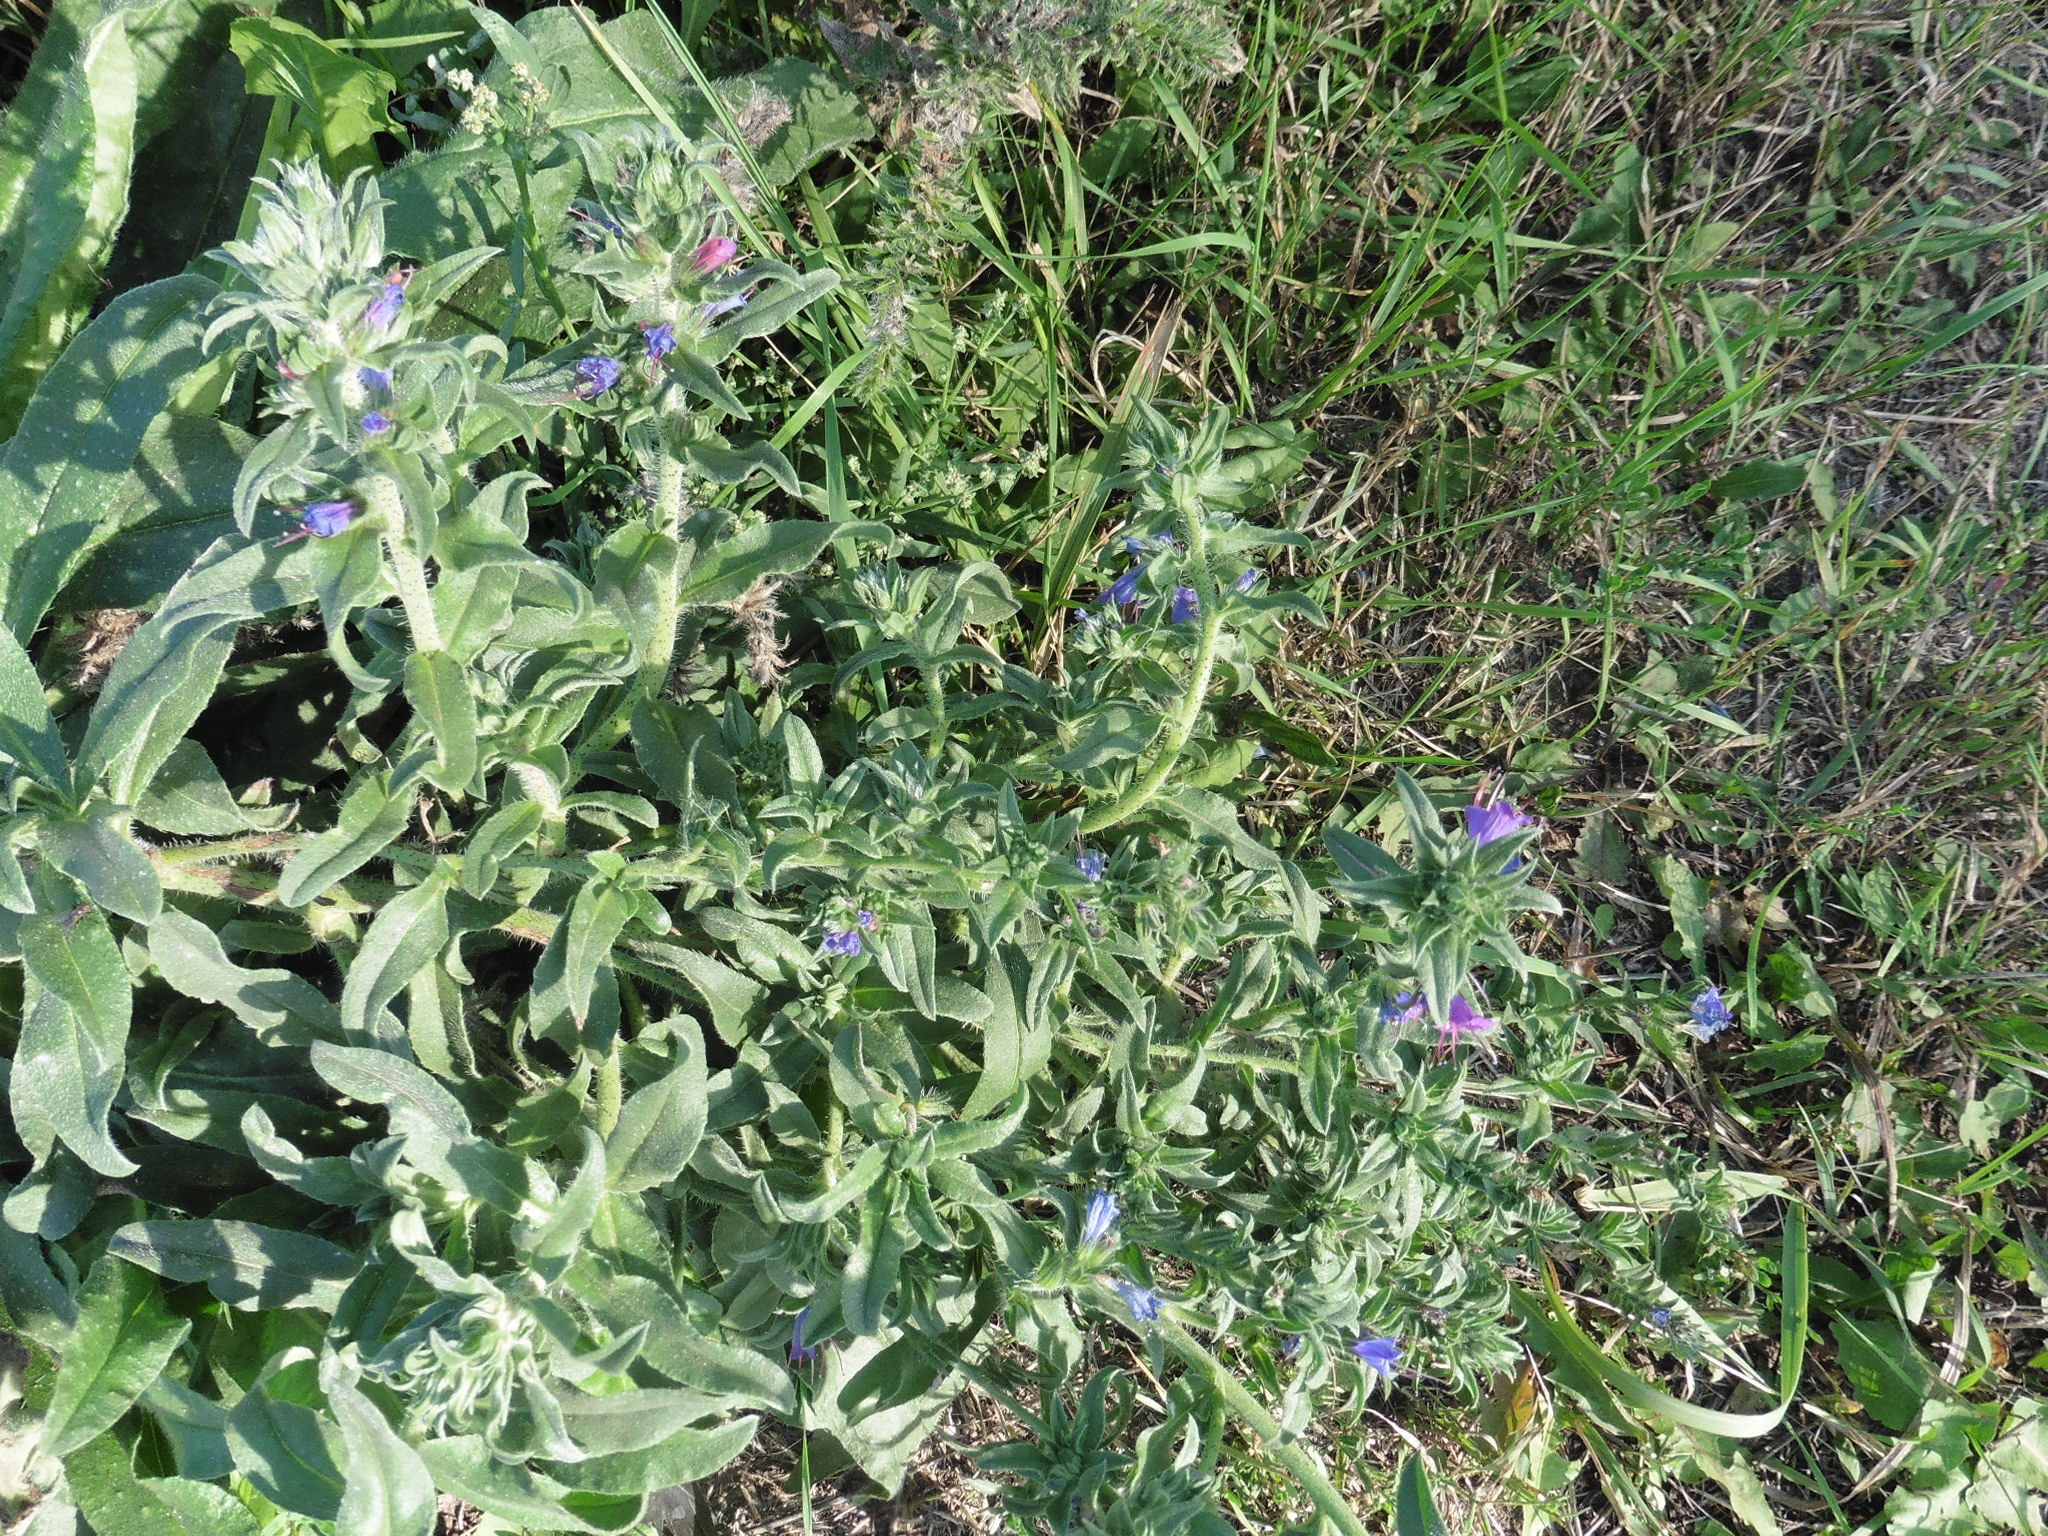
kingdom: Plantae
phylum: Tracheophyta
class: Magnoliopsida
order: Boraginales
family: Boraginaceae
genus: Echium
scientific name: Echium vulgare
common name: Common viper's bugloss
